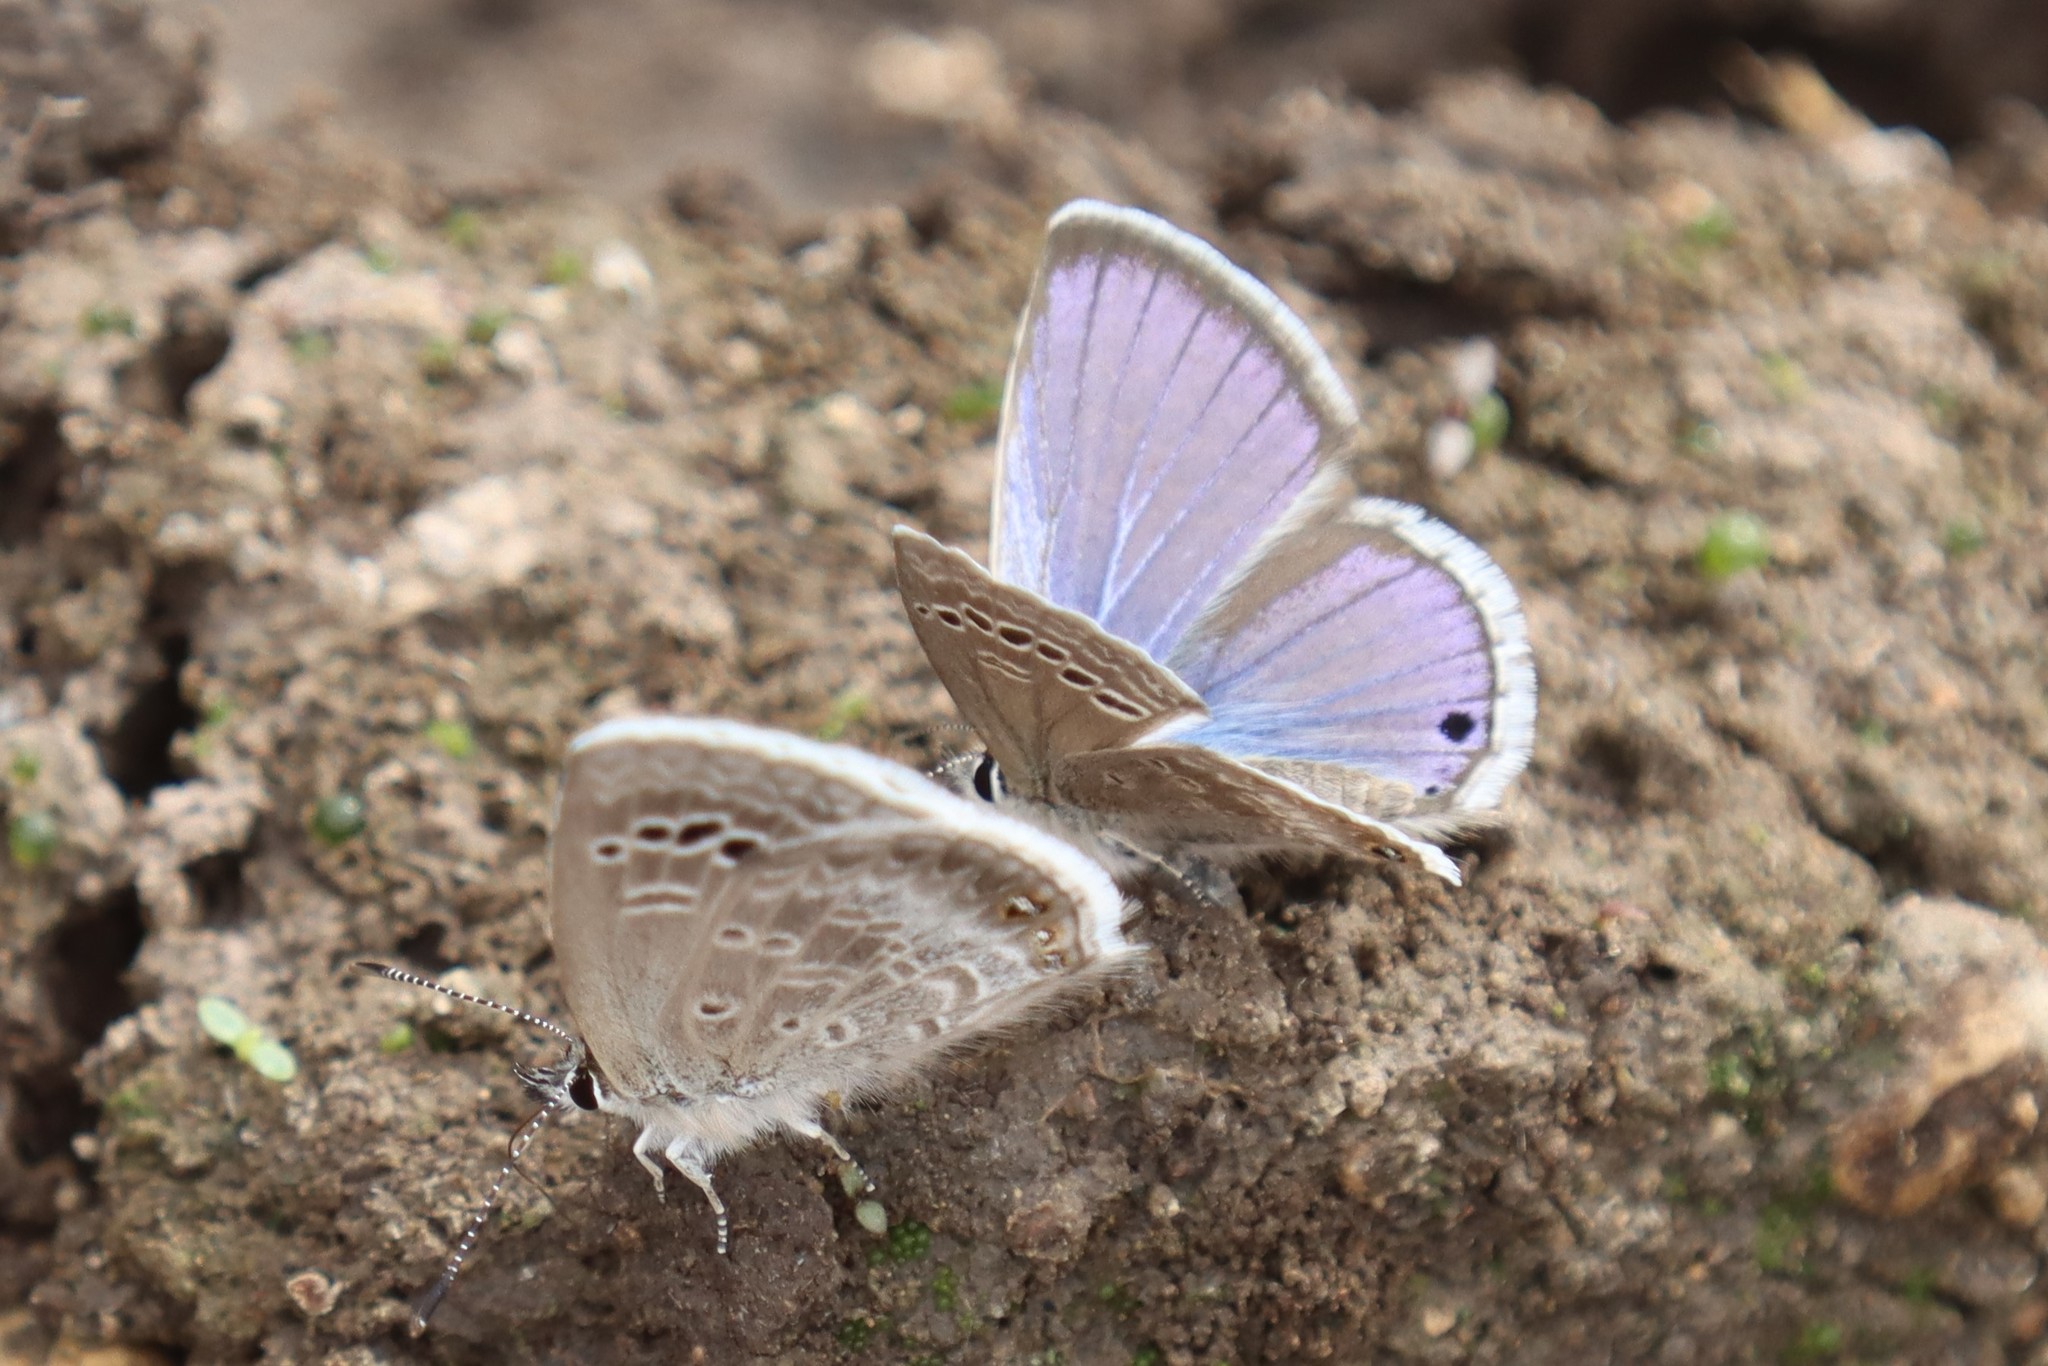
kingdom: Animalia
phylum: Arthropoda
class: Insecta
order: Lepidoptera
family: Lycaenidae
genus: Echinargus
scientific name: Echinargus isola
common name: Reakirt's blue
